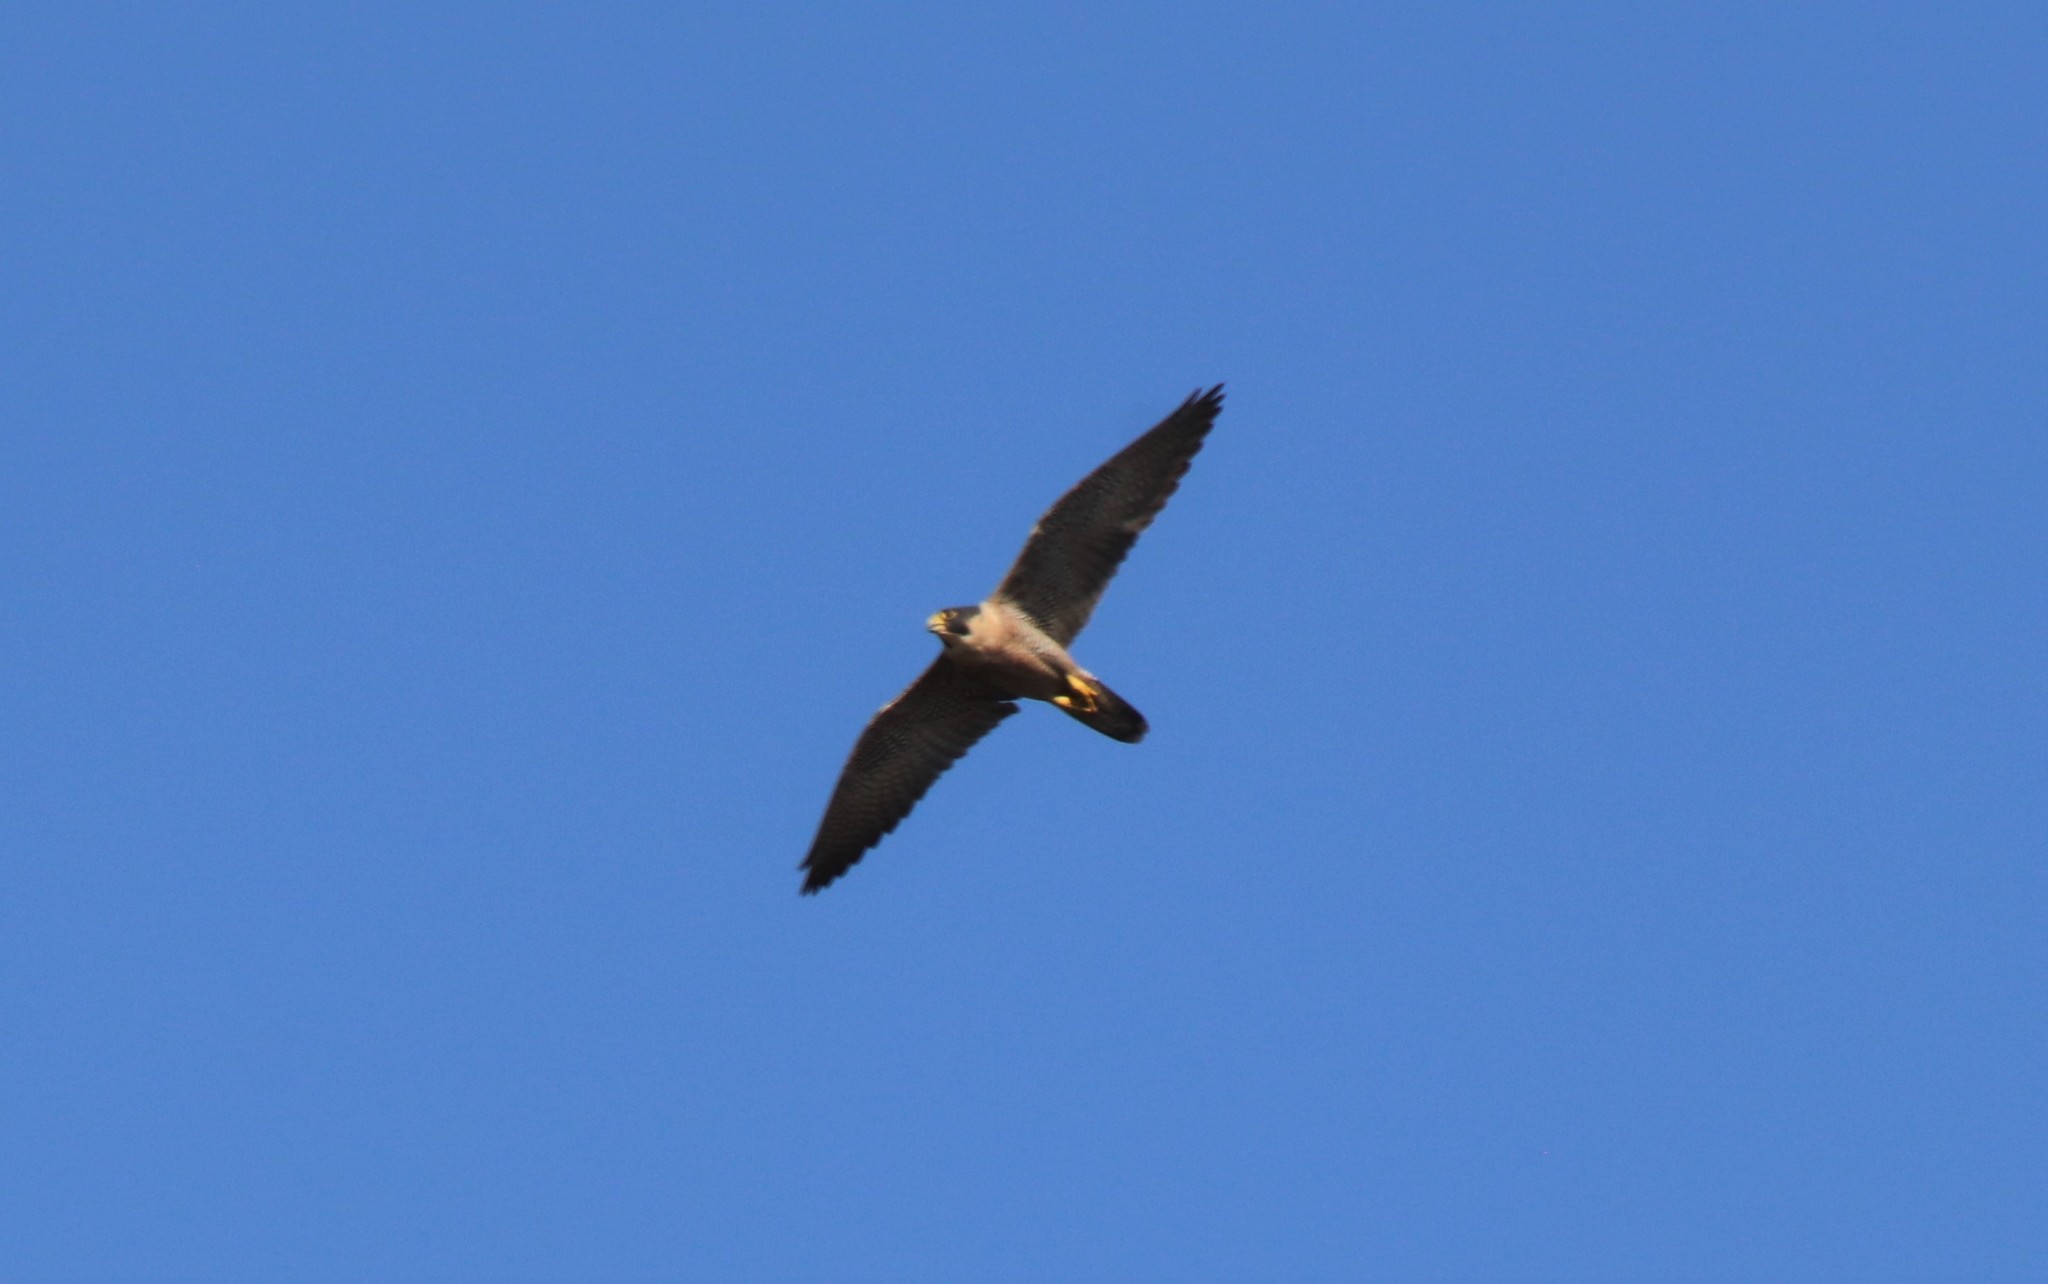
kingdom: Animalia
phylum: Chordata
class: Aves
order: Falconiformes
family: Falconidae
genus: Falco
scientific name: Falco peregrinus
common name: Peregrine falcon
